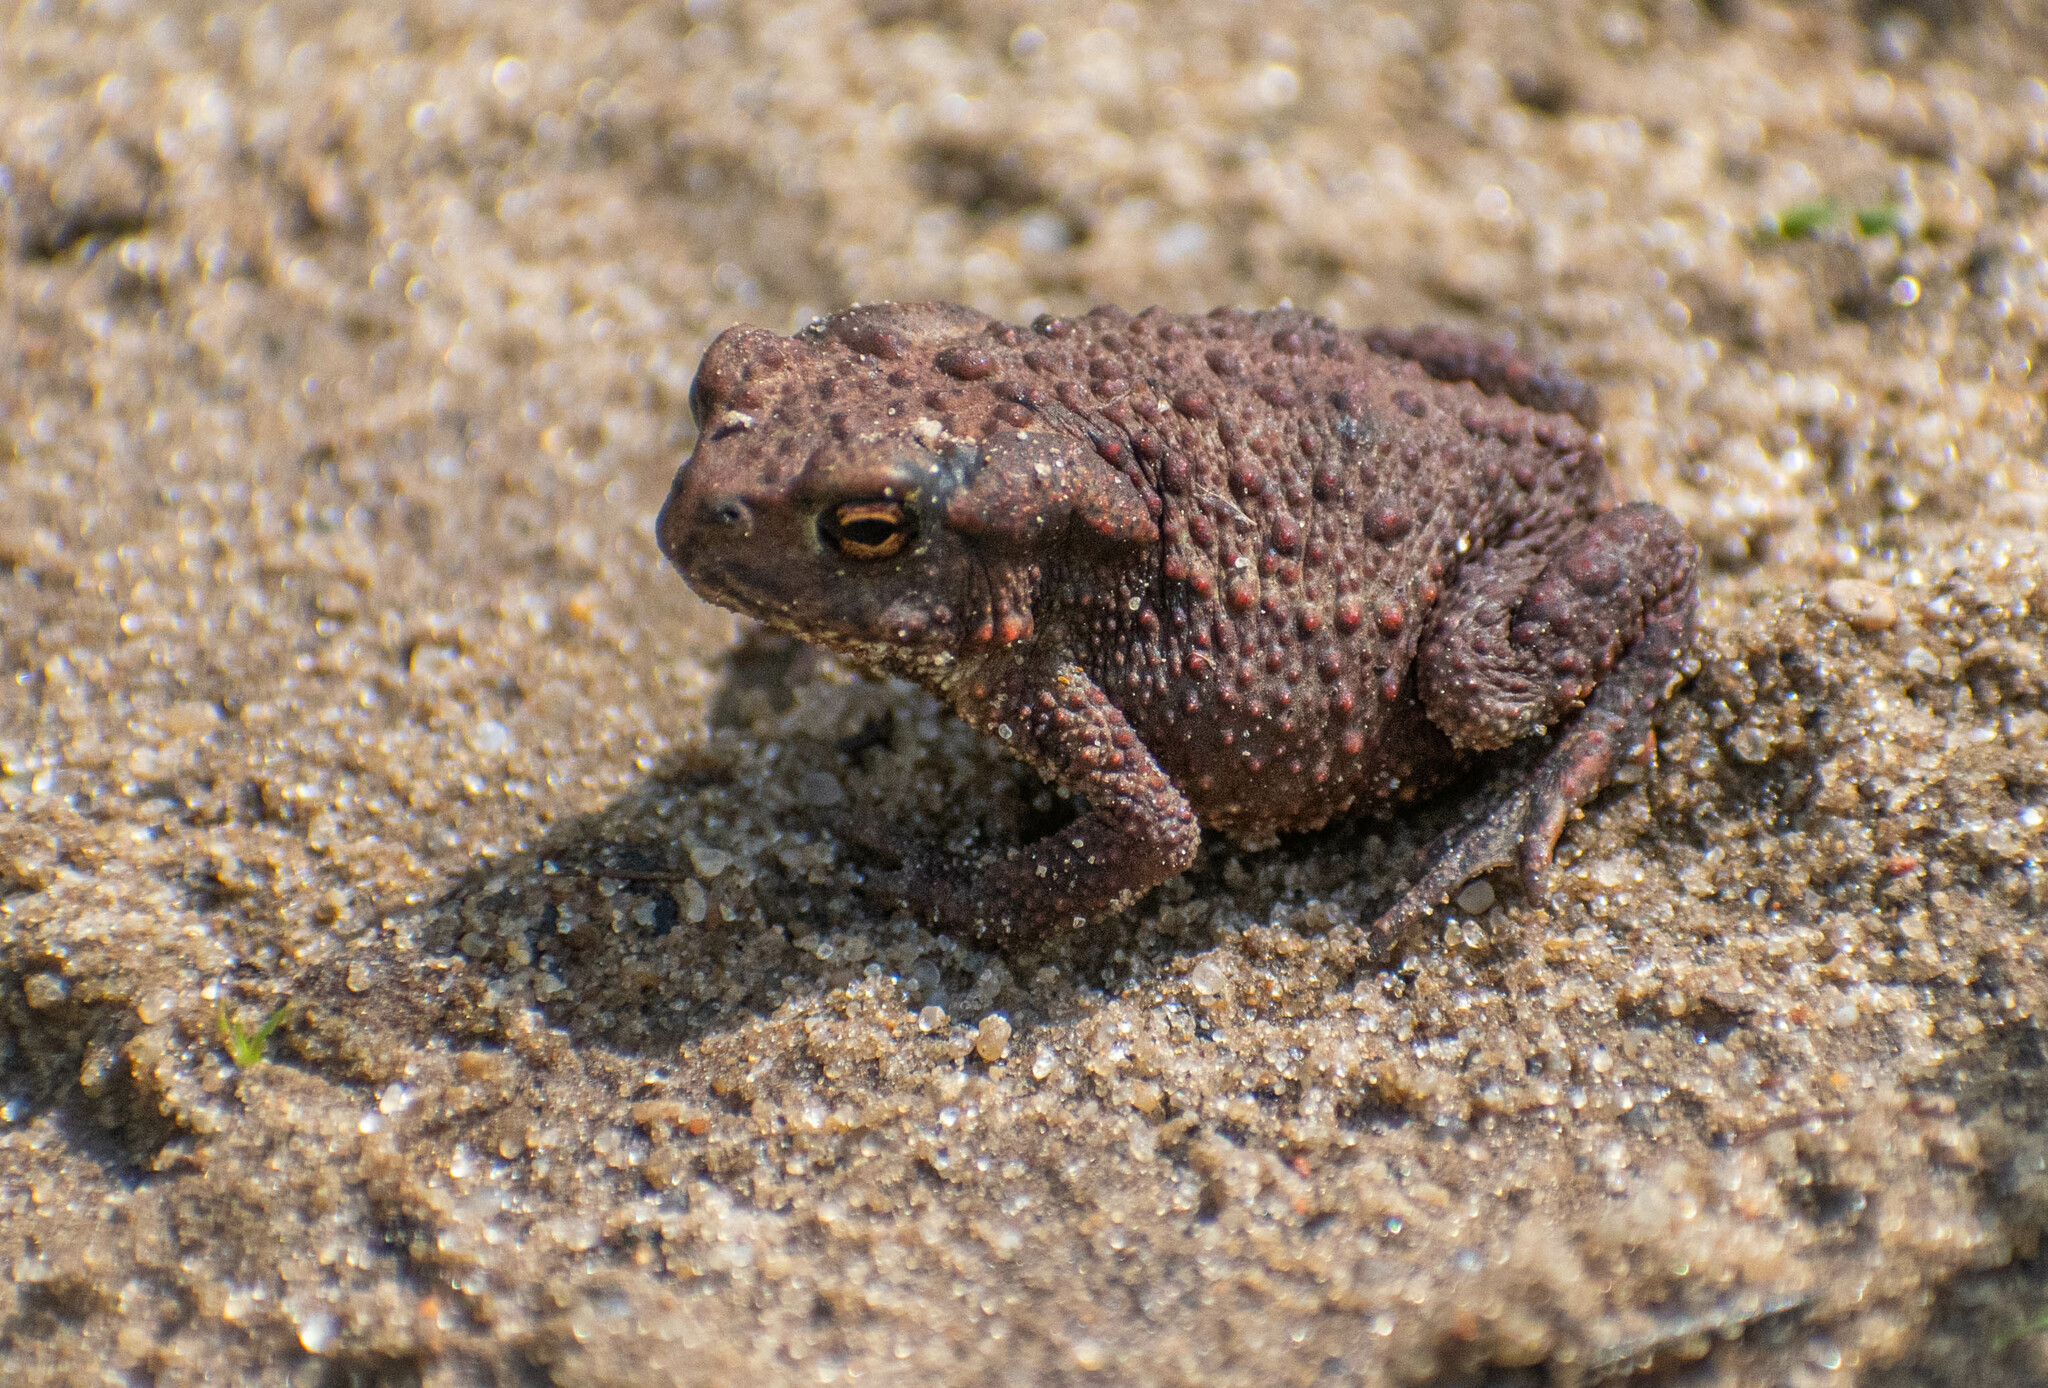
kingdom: Animalia
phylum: Chordata
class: Amphibia
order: Anura
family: Bufonidae
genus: Bufo
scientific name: Bufo bufo
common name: Common toad
